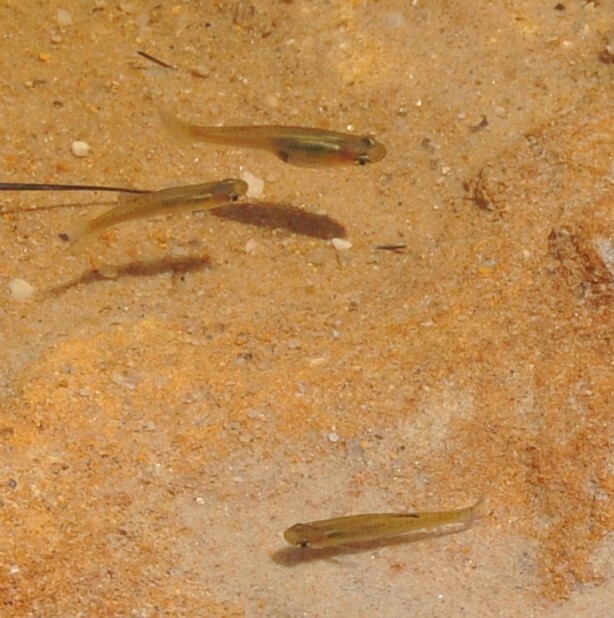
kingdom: Animalia
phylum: Chordata
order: Cyprinodontiformes
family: Poeciliidae
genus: Gambusia
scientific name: Gambusia holbrooki
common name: Eastern mosquitofish
